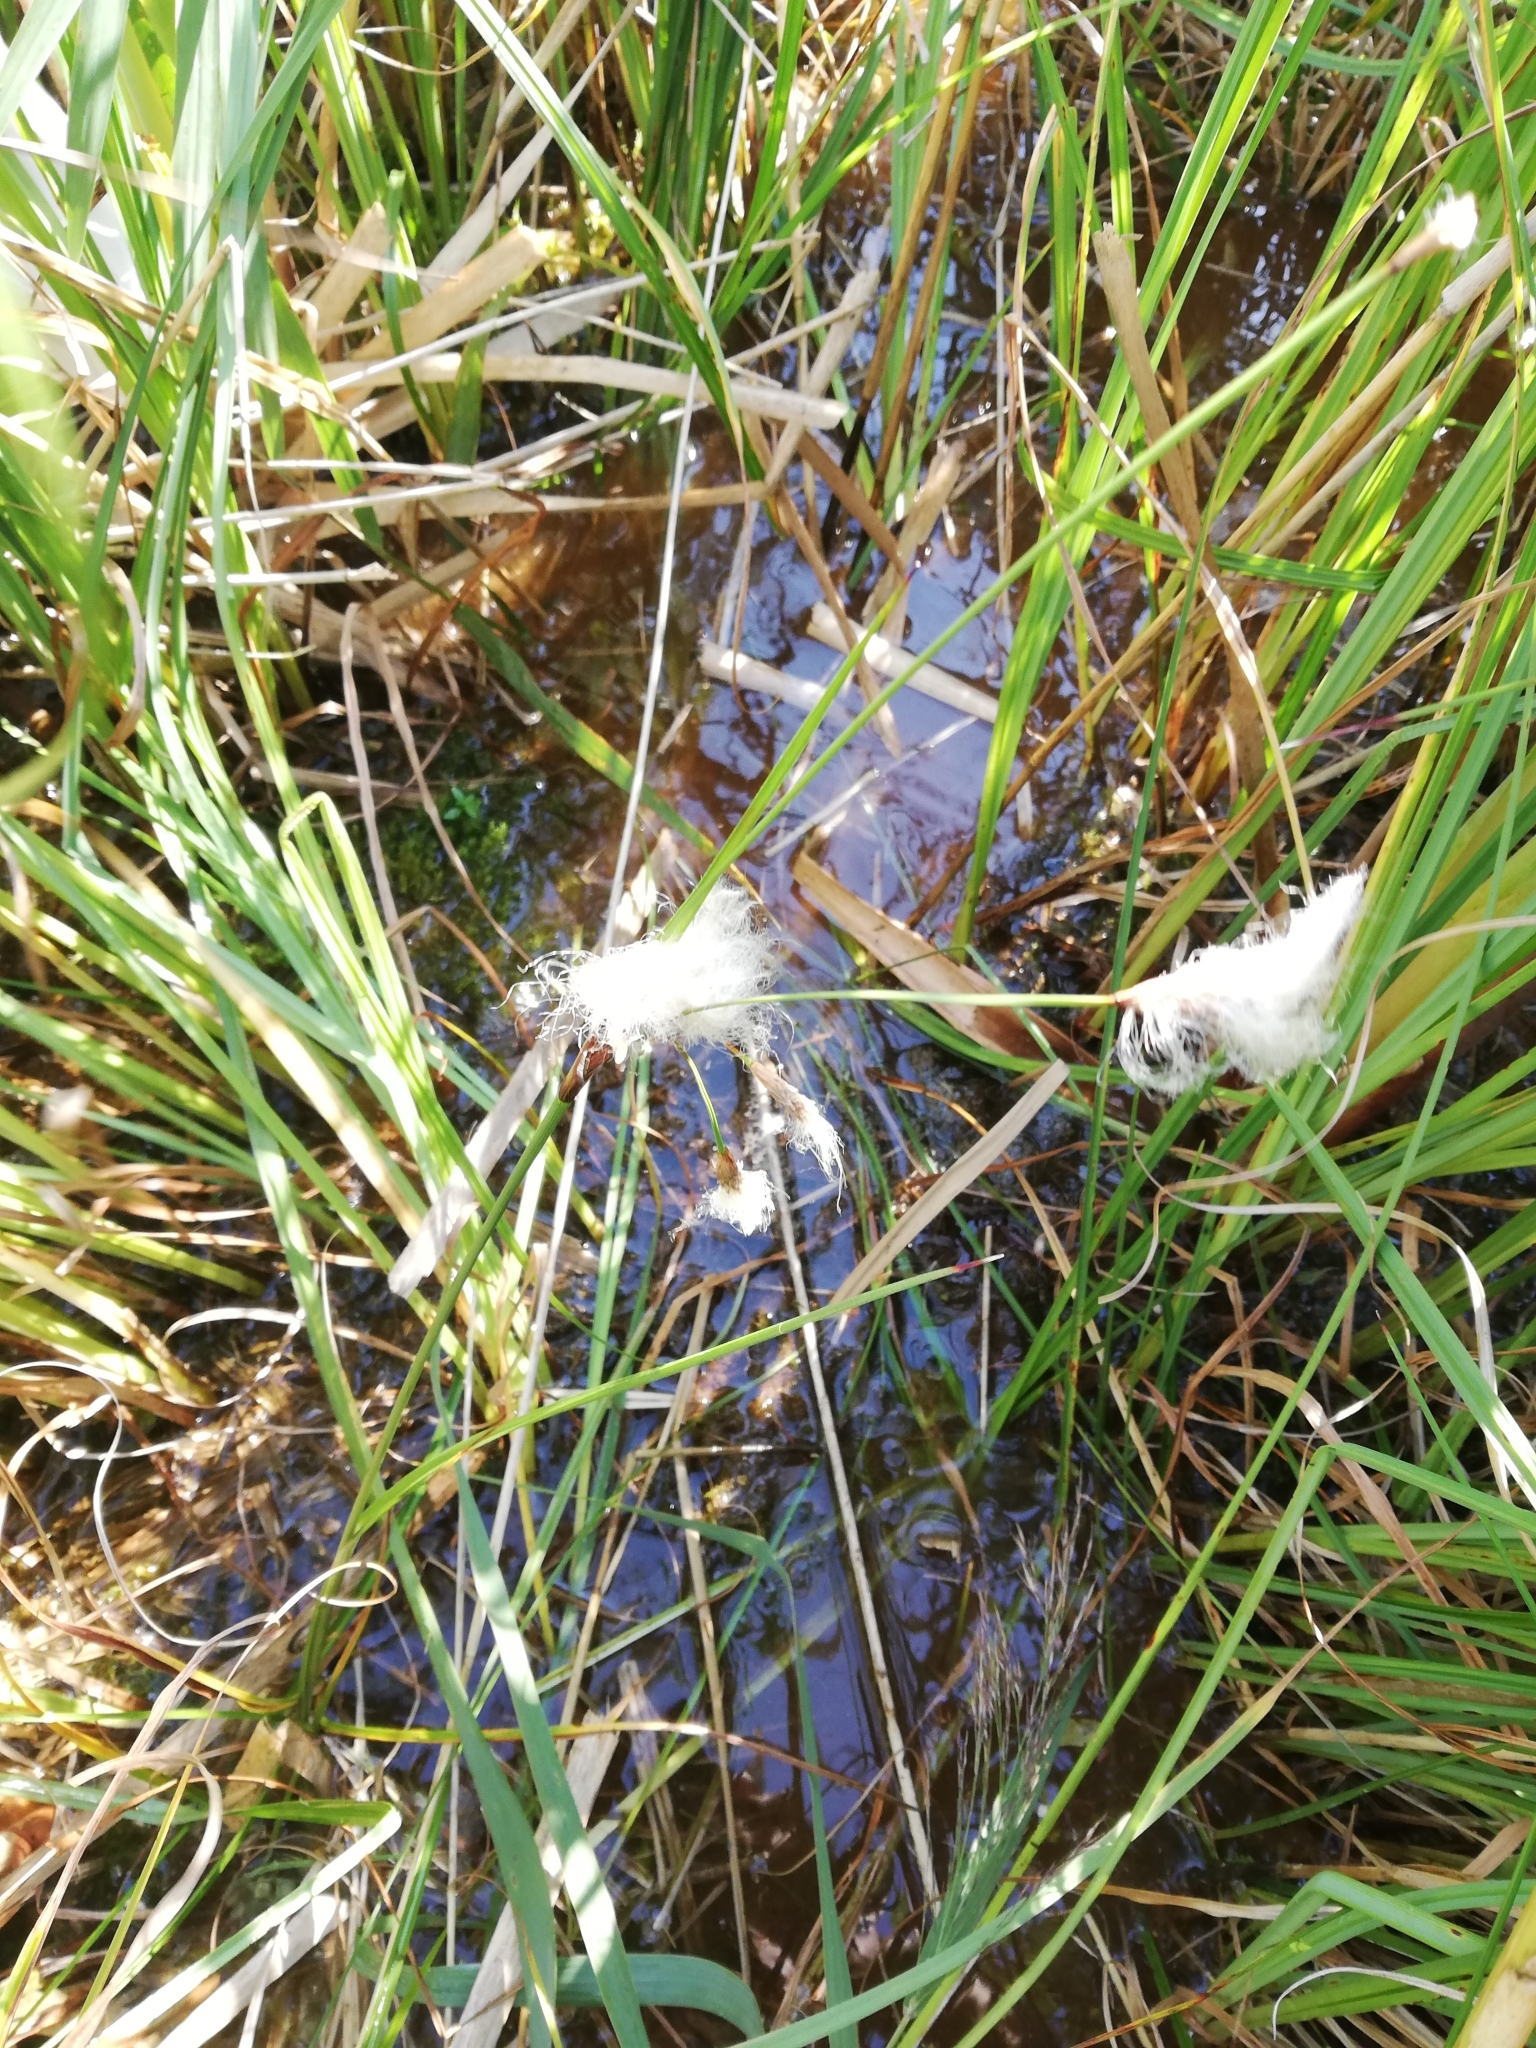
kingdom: Plantae
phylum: Tracheophyta
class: Liliopsida
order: Poales
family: Cyperaceae
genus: Eriophorum
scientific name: Eriophorum angustifolium
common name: Common cottongrass
